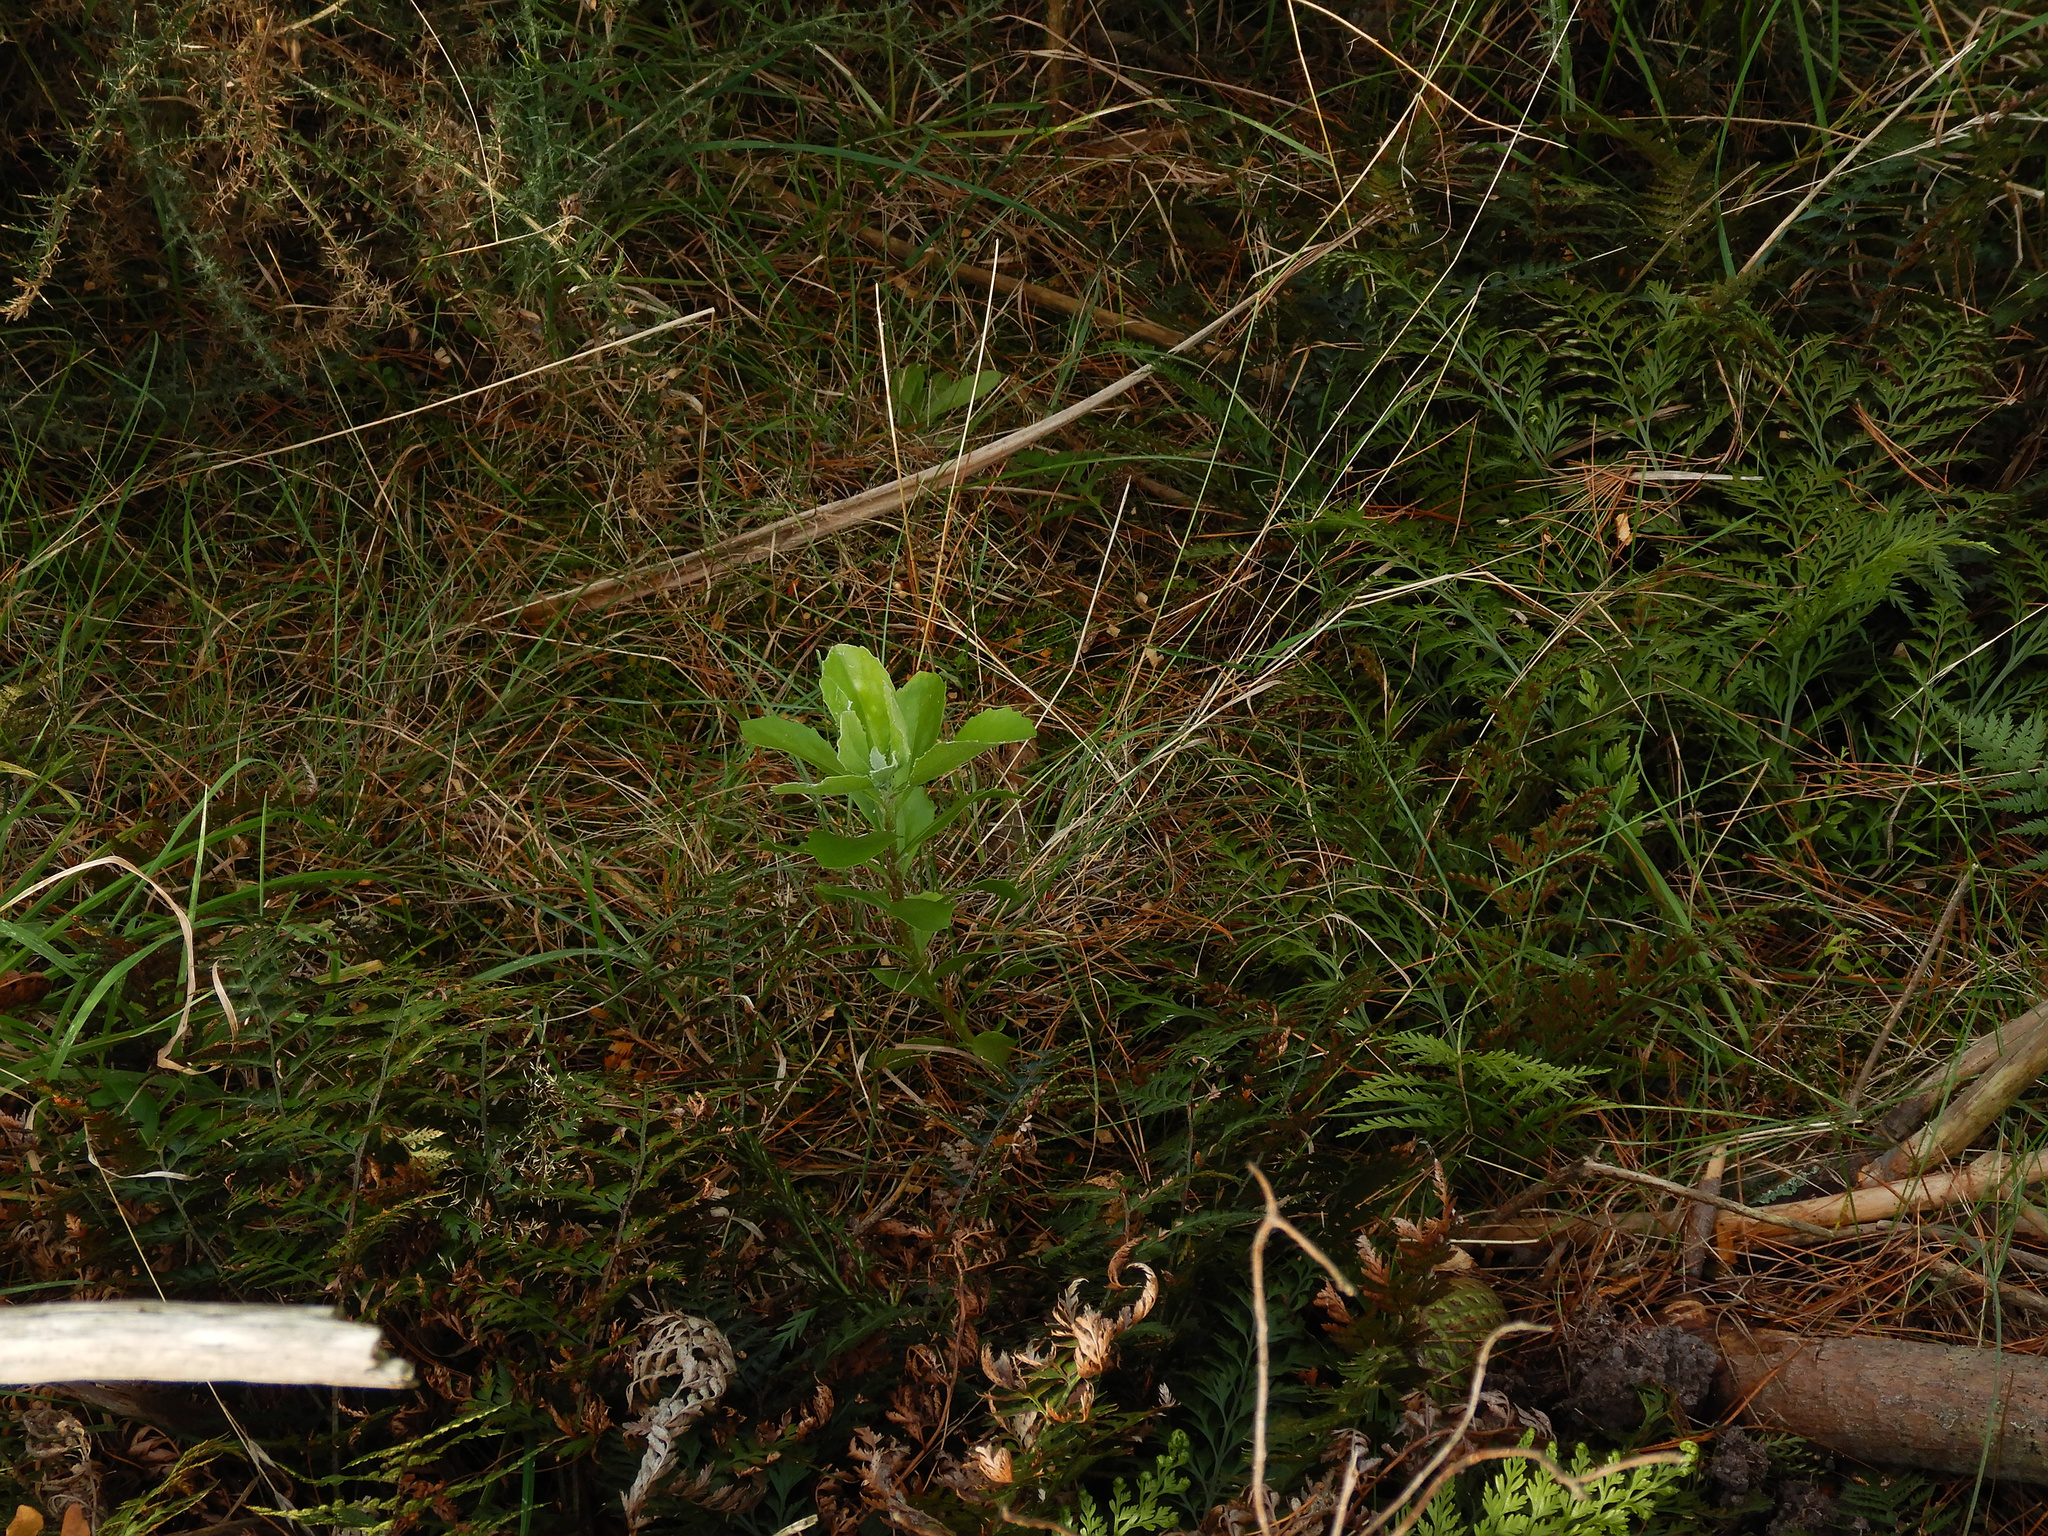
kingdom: Plantae
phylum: Tracheophyta
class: Magnoliopsida
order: Asterales
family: Asteraceae
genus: Osteospermum
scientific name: Osteospermum moniliferum
